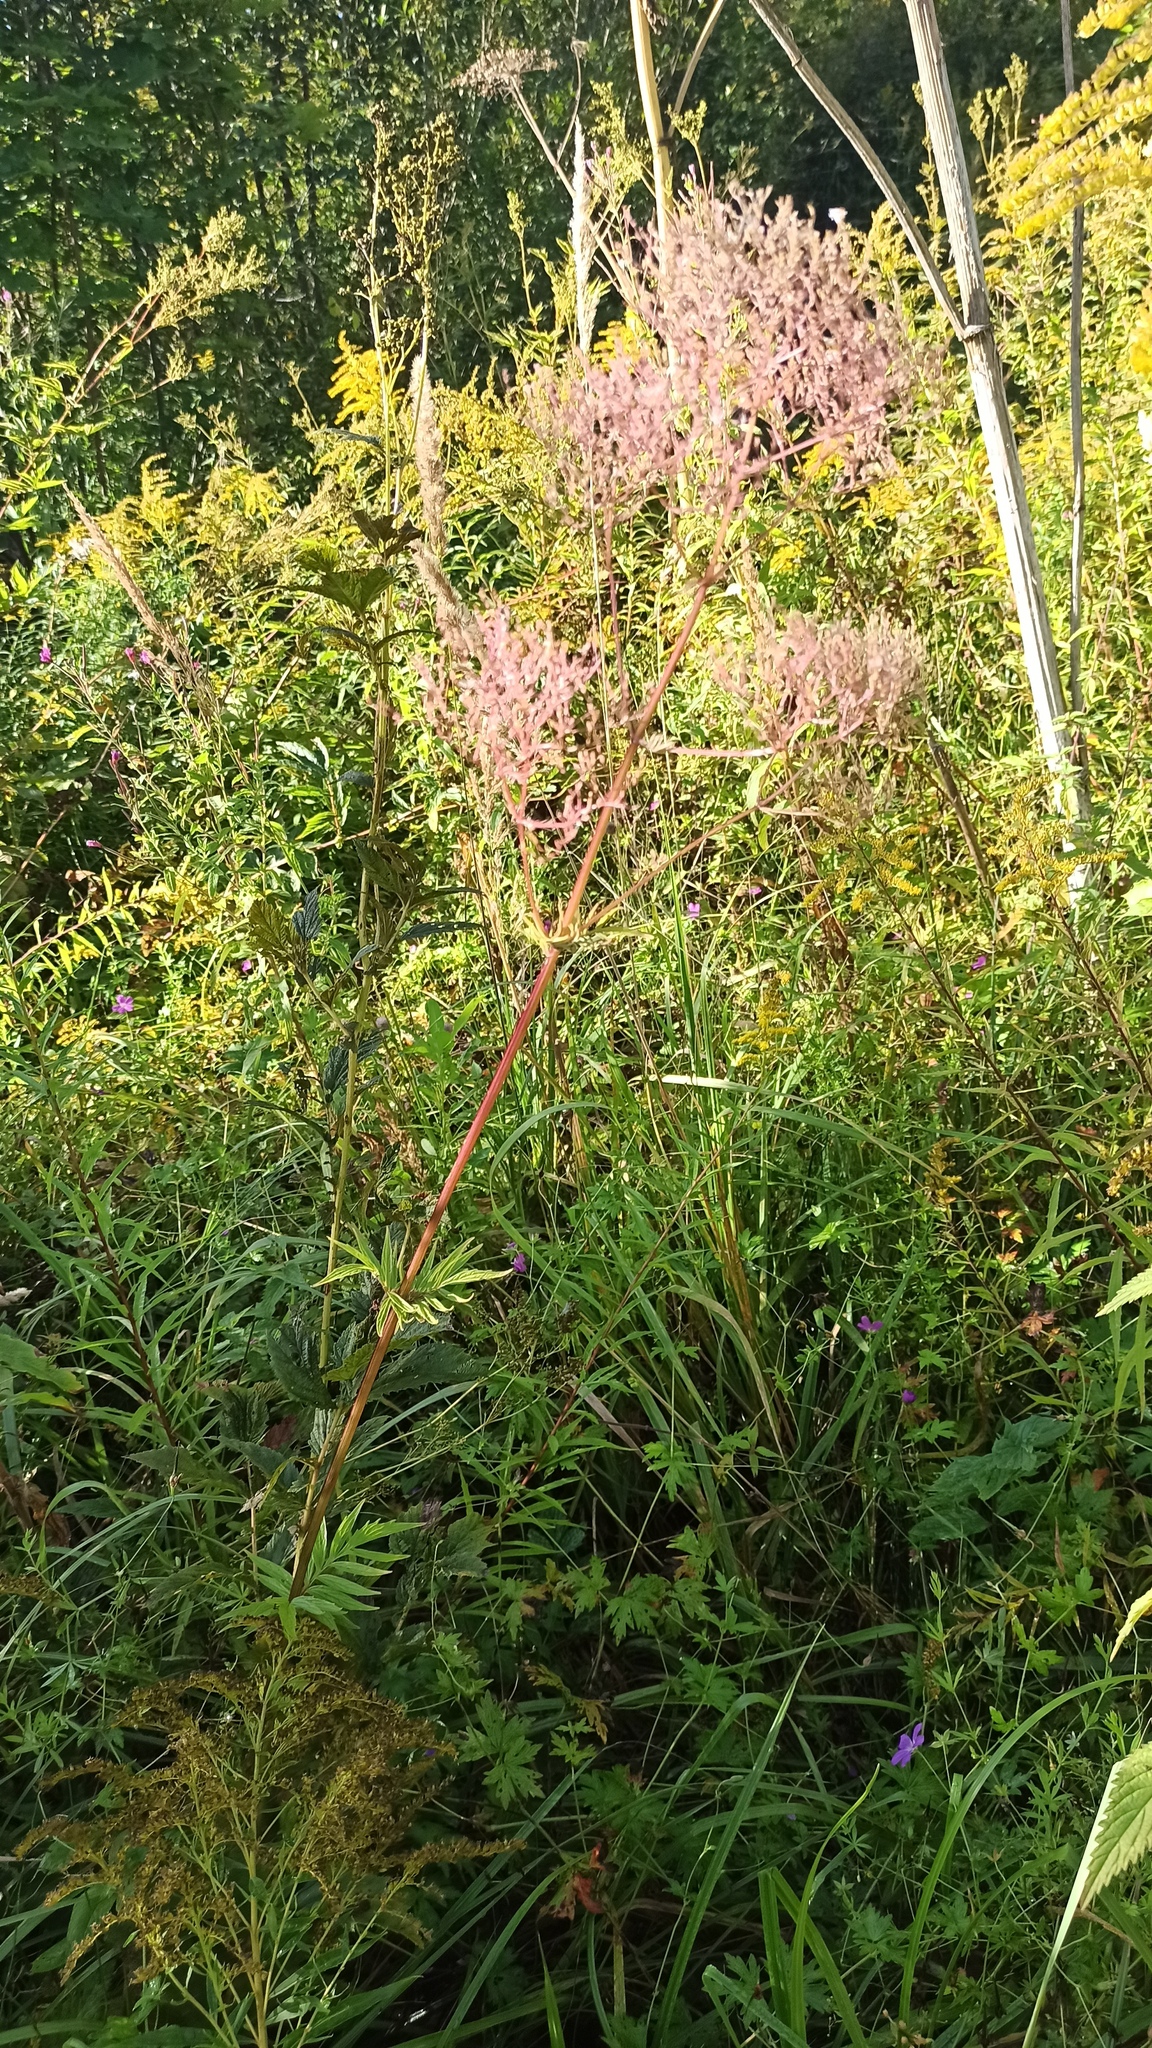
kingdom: Plantae
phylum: Tracheophyta
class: Magnoliopsida
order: Dipsacales
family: Caprifoliaceae
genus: Valeriana
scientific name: Valeriana officinalis
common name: Common valerian
